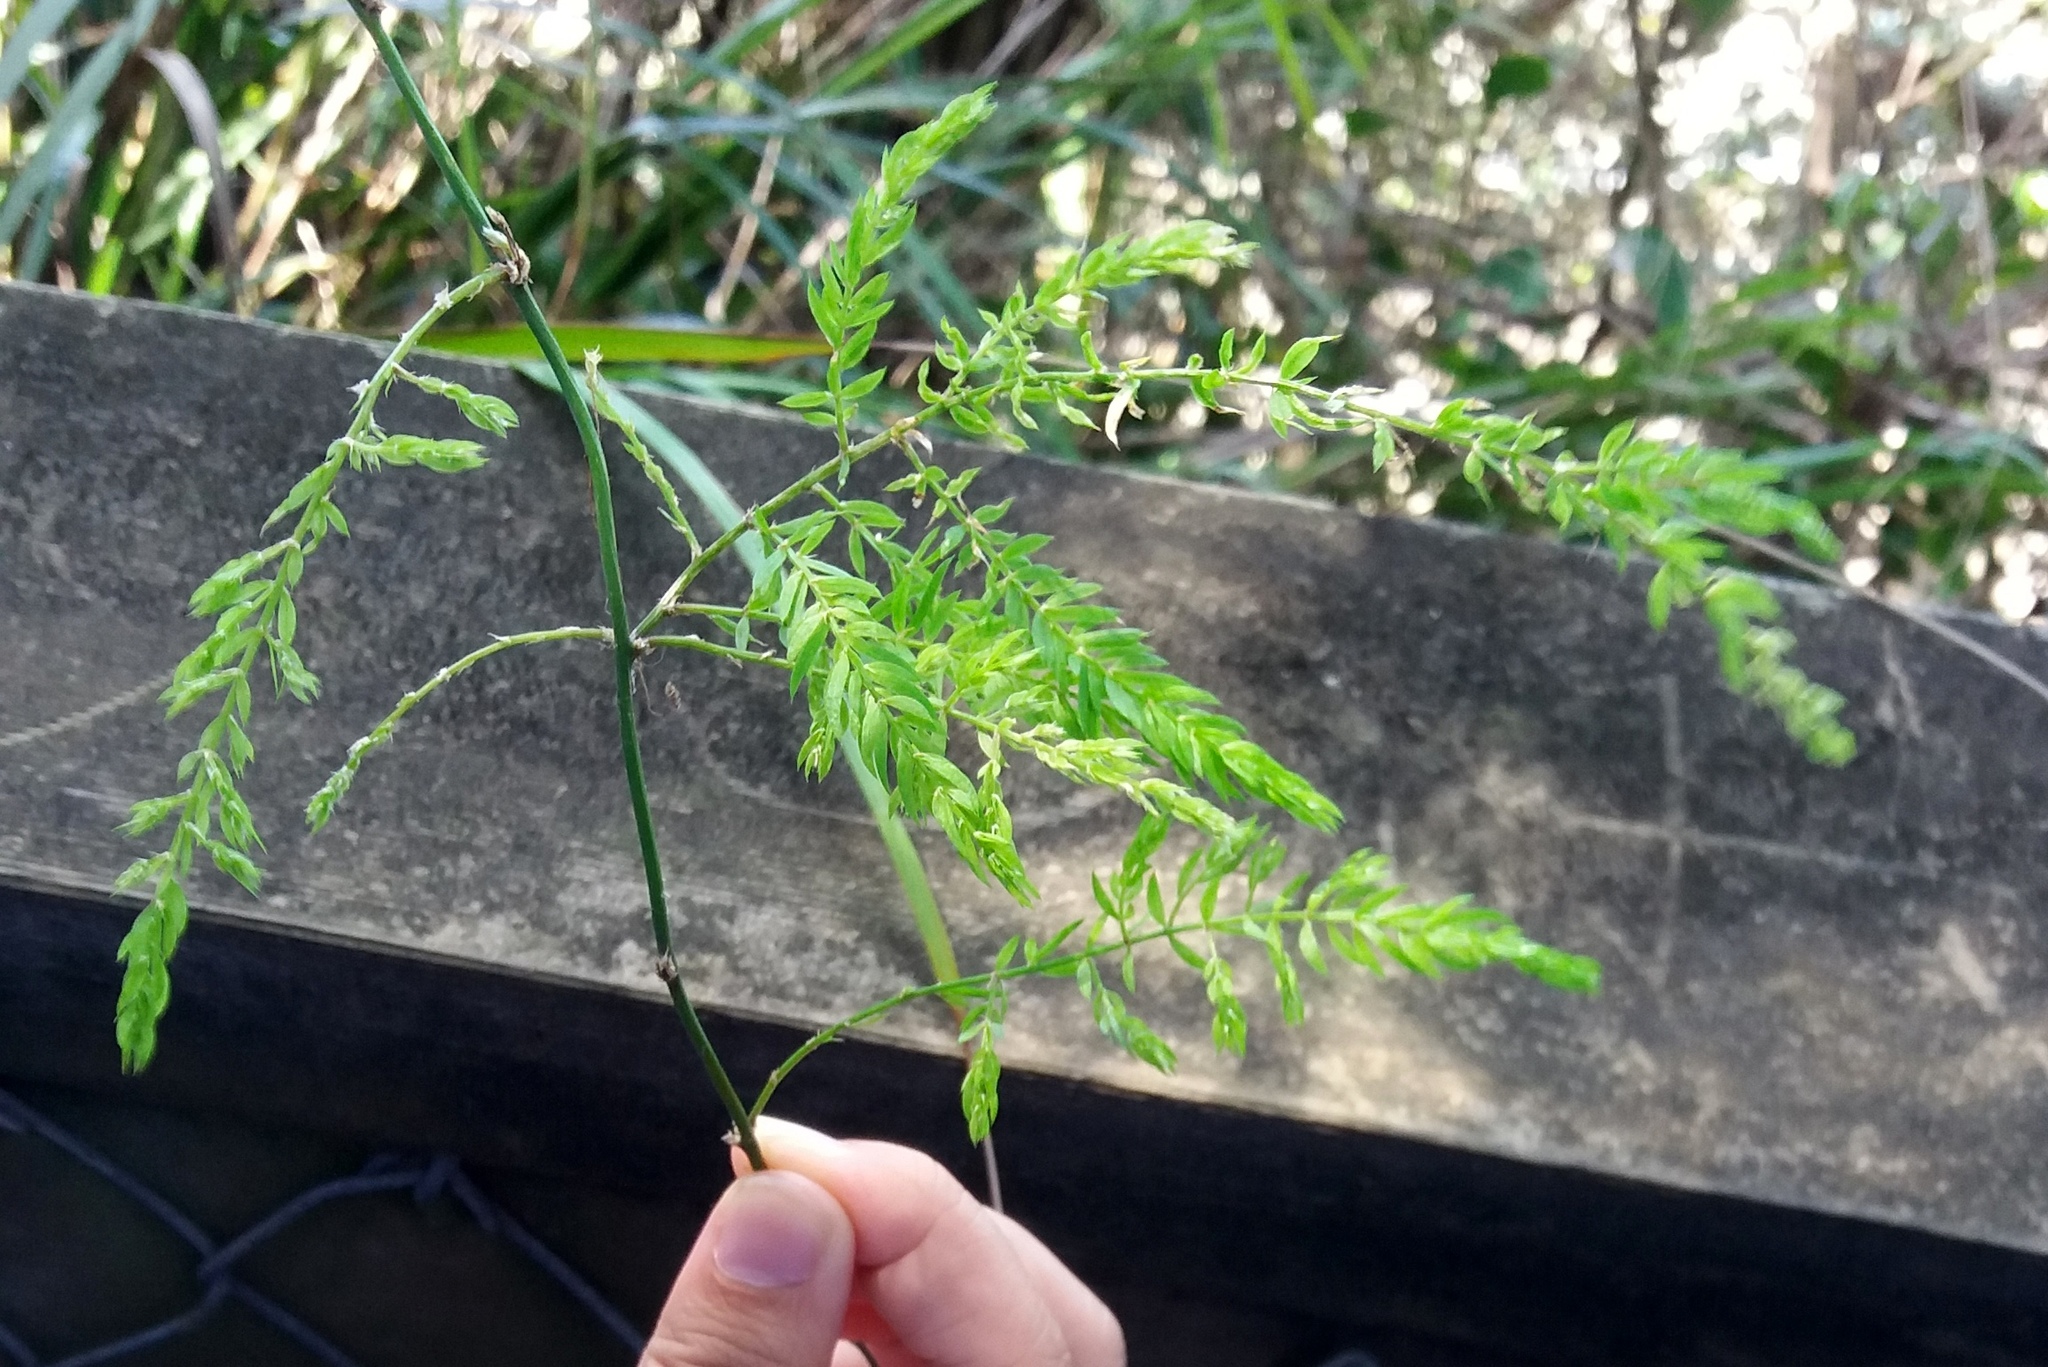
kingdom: Plantae
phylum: Tracheophyta
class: Liliopsida
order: Asparagales
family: Asparagaceae
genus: Asparagus
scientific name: Asparagus scandens
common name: Asparagus-fern
